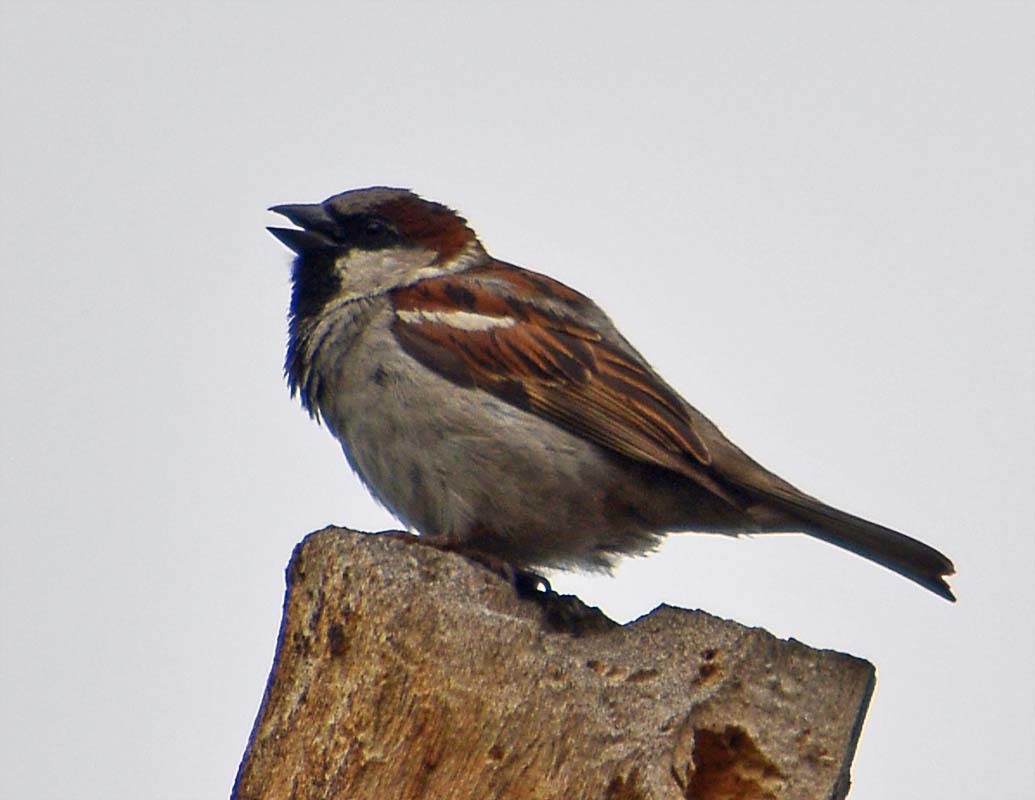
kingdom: Animalia
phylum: Chordata
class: Aves
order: Passeriformes
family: Passeridae
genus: Passer
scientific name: Passer domesticus
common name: House sparrow
